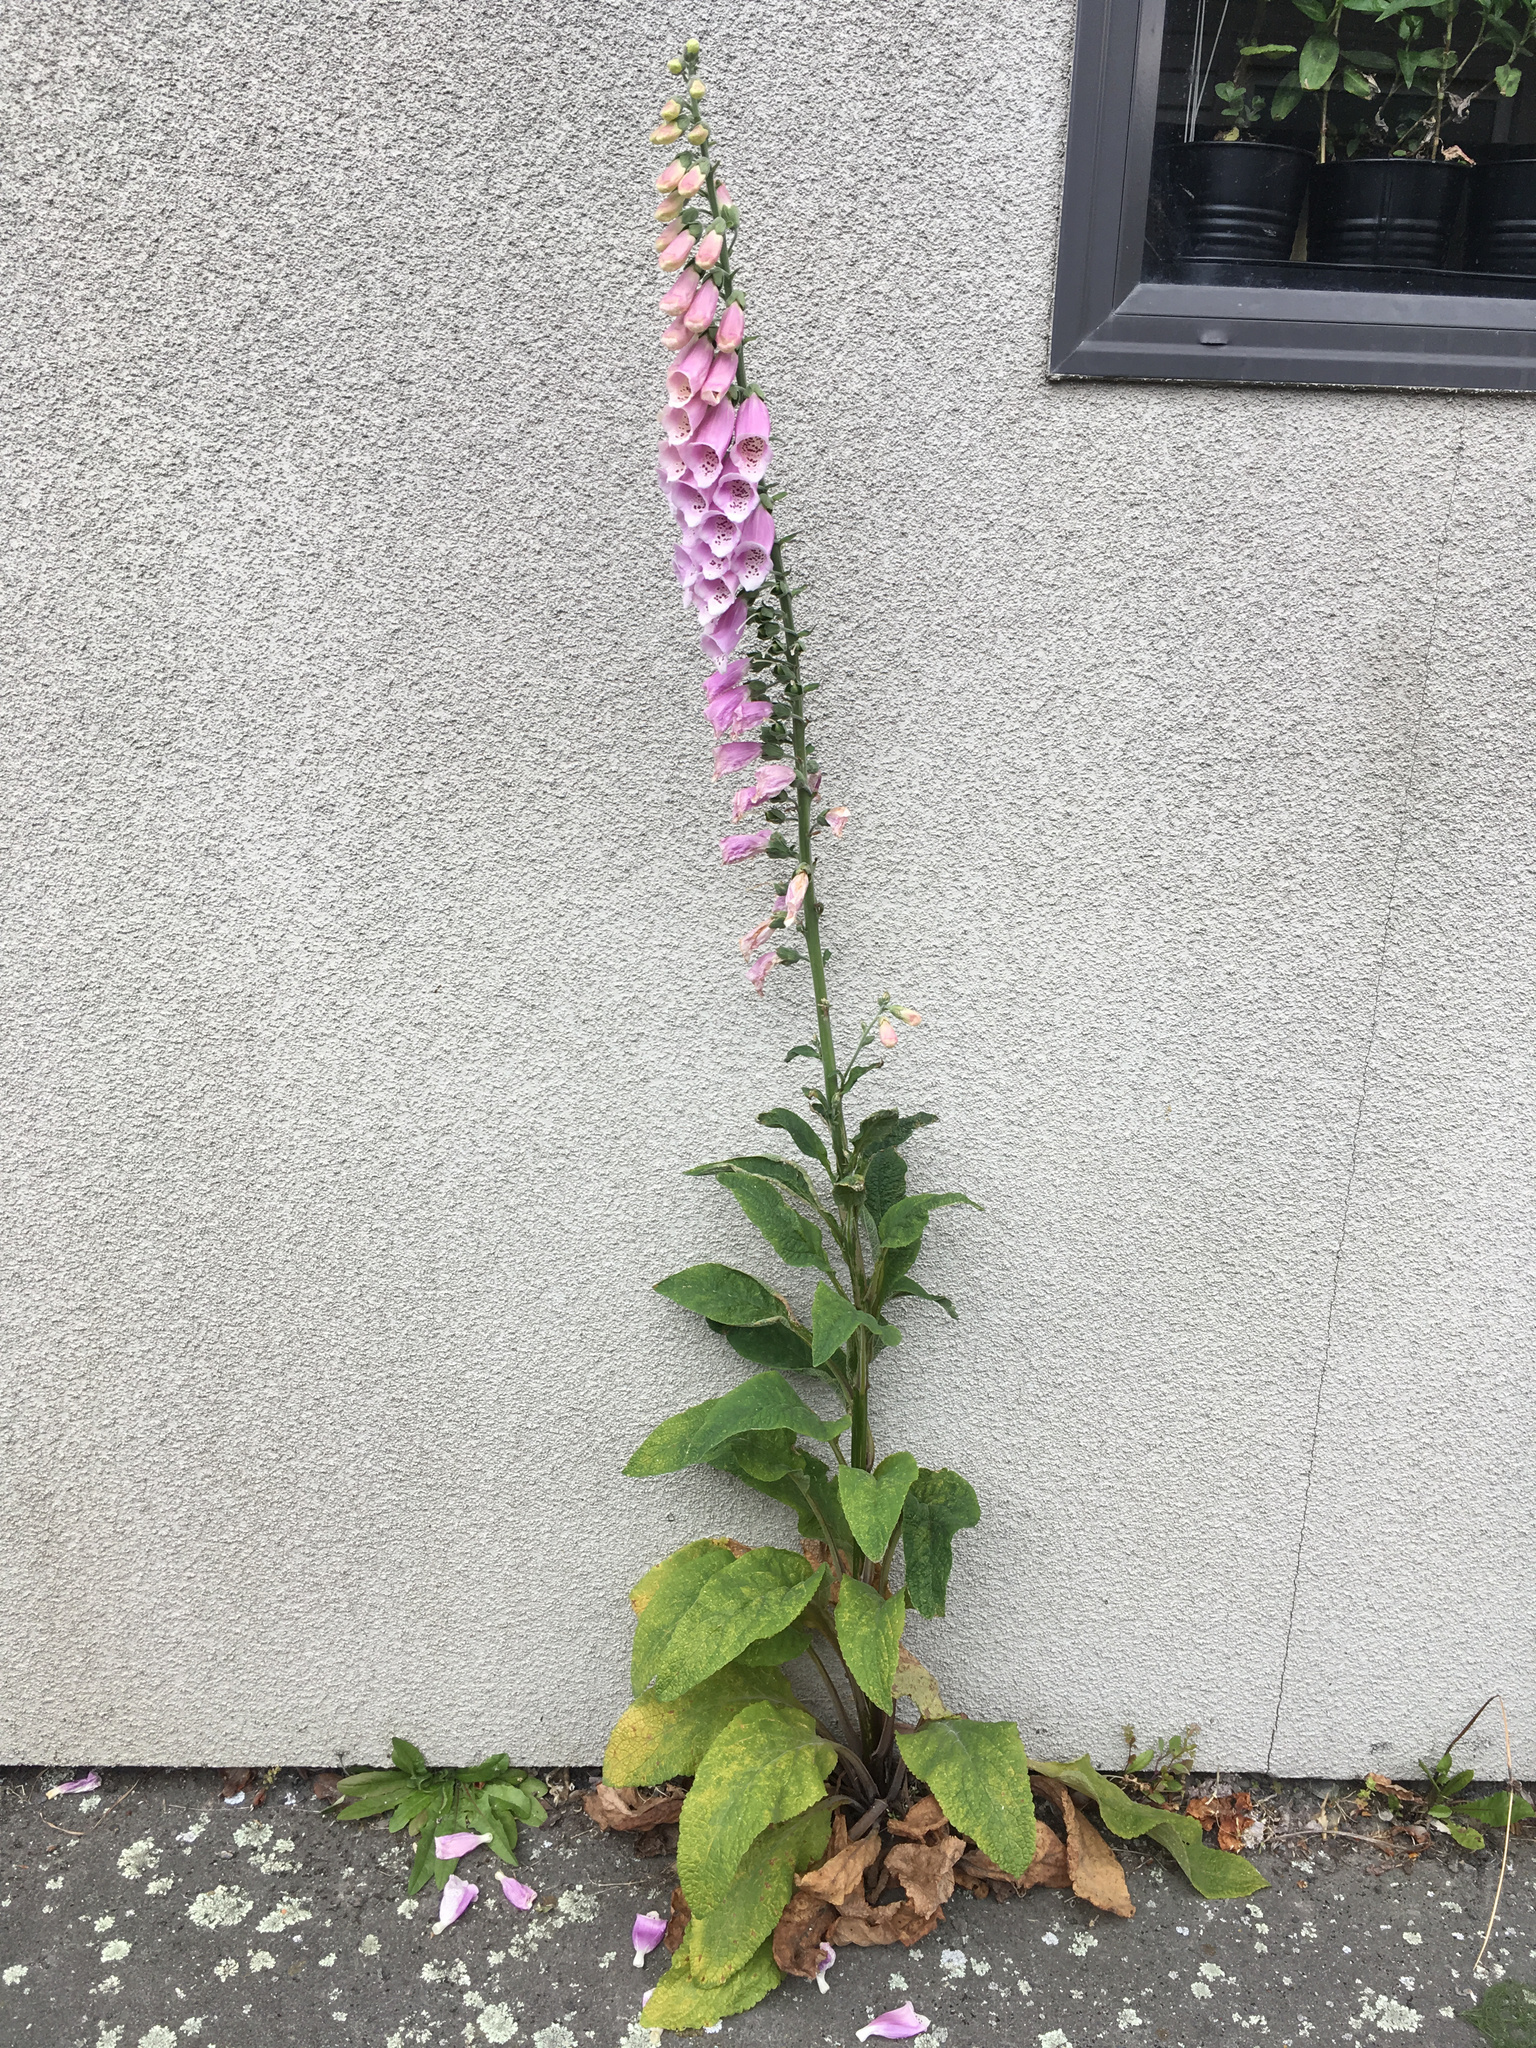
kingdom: Plantae
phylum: Tracheophyta
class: Magnoliopsida
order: Lamiales
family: Plantaginaceae
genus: Digitalis
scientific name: Digitalis purpurea
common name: Foxglove
